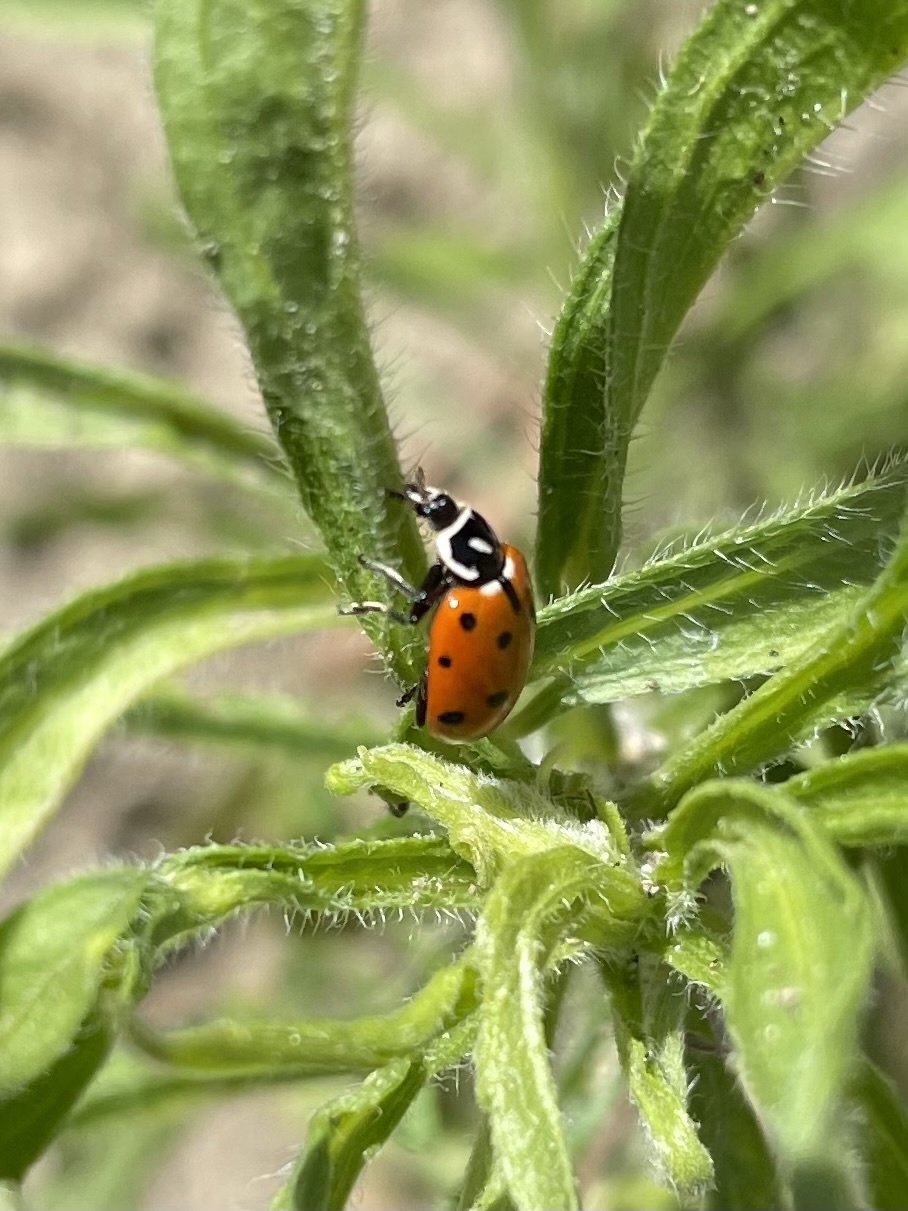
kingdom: Animalia
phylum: Arthropoda
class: Insecta
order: Coleoptera
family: Coccinellidae
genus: Hippodamia
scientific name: Hippodamia convergens
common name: Convergent lady beetle
